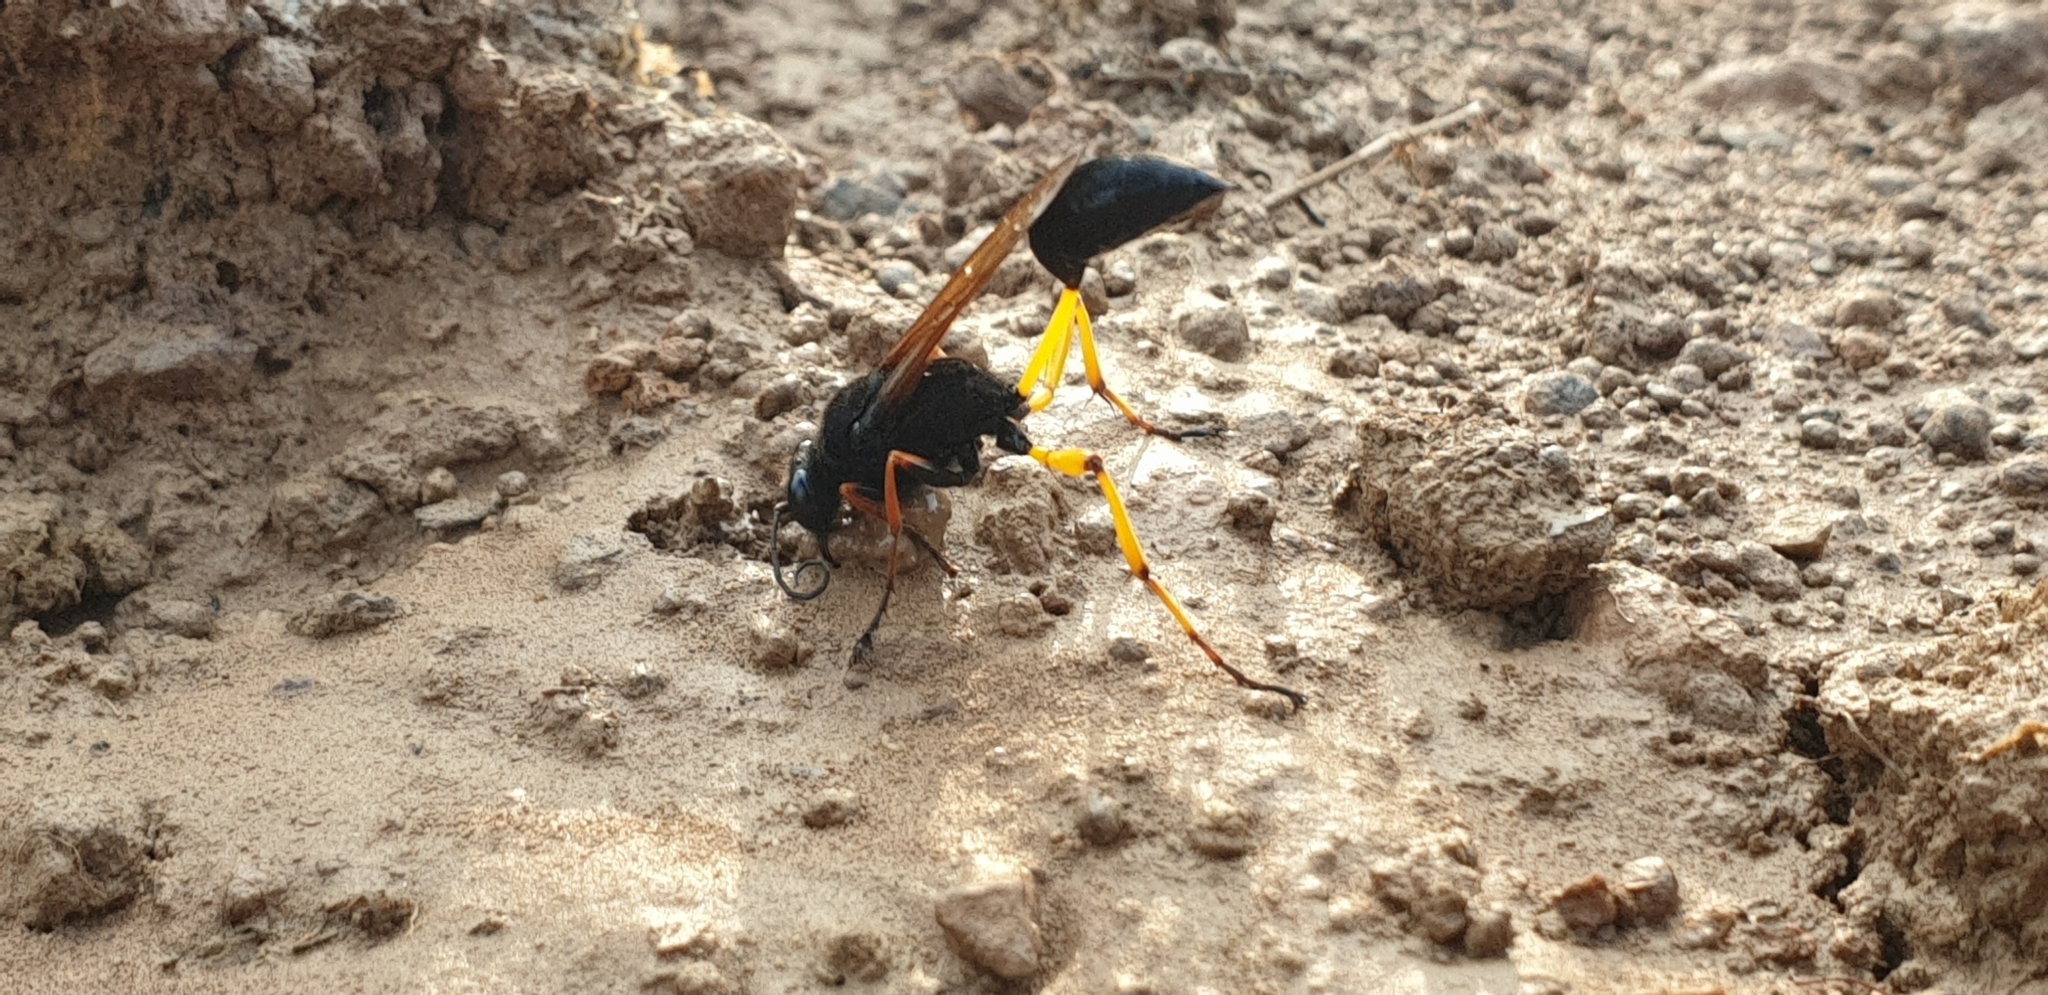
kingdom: Animalia
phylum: Arthropoda
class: Insecta
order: Hymenoptera
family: Sphecidae
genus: Sceliphron
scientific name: Sceliphron javanum
